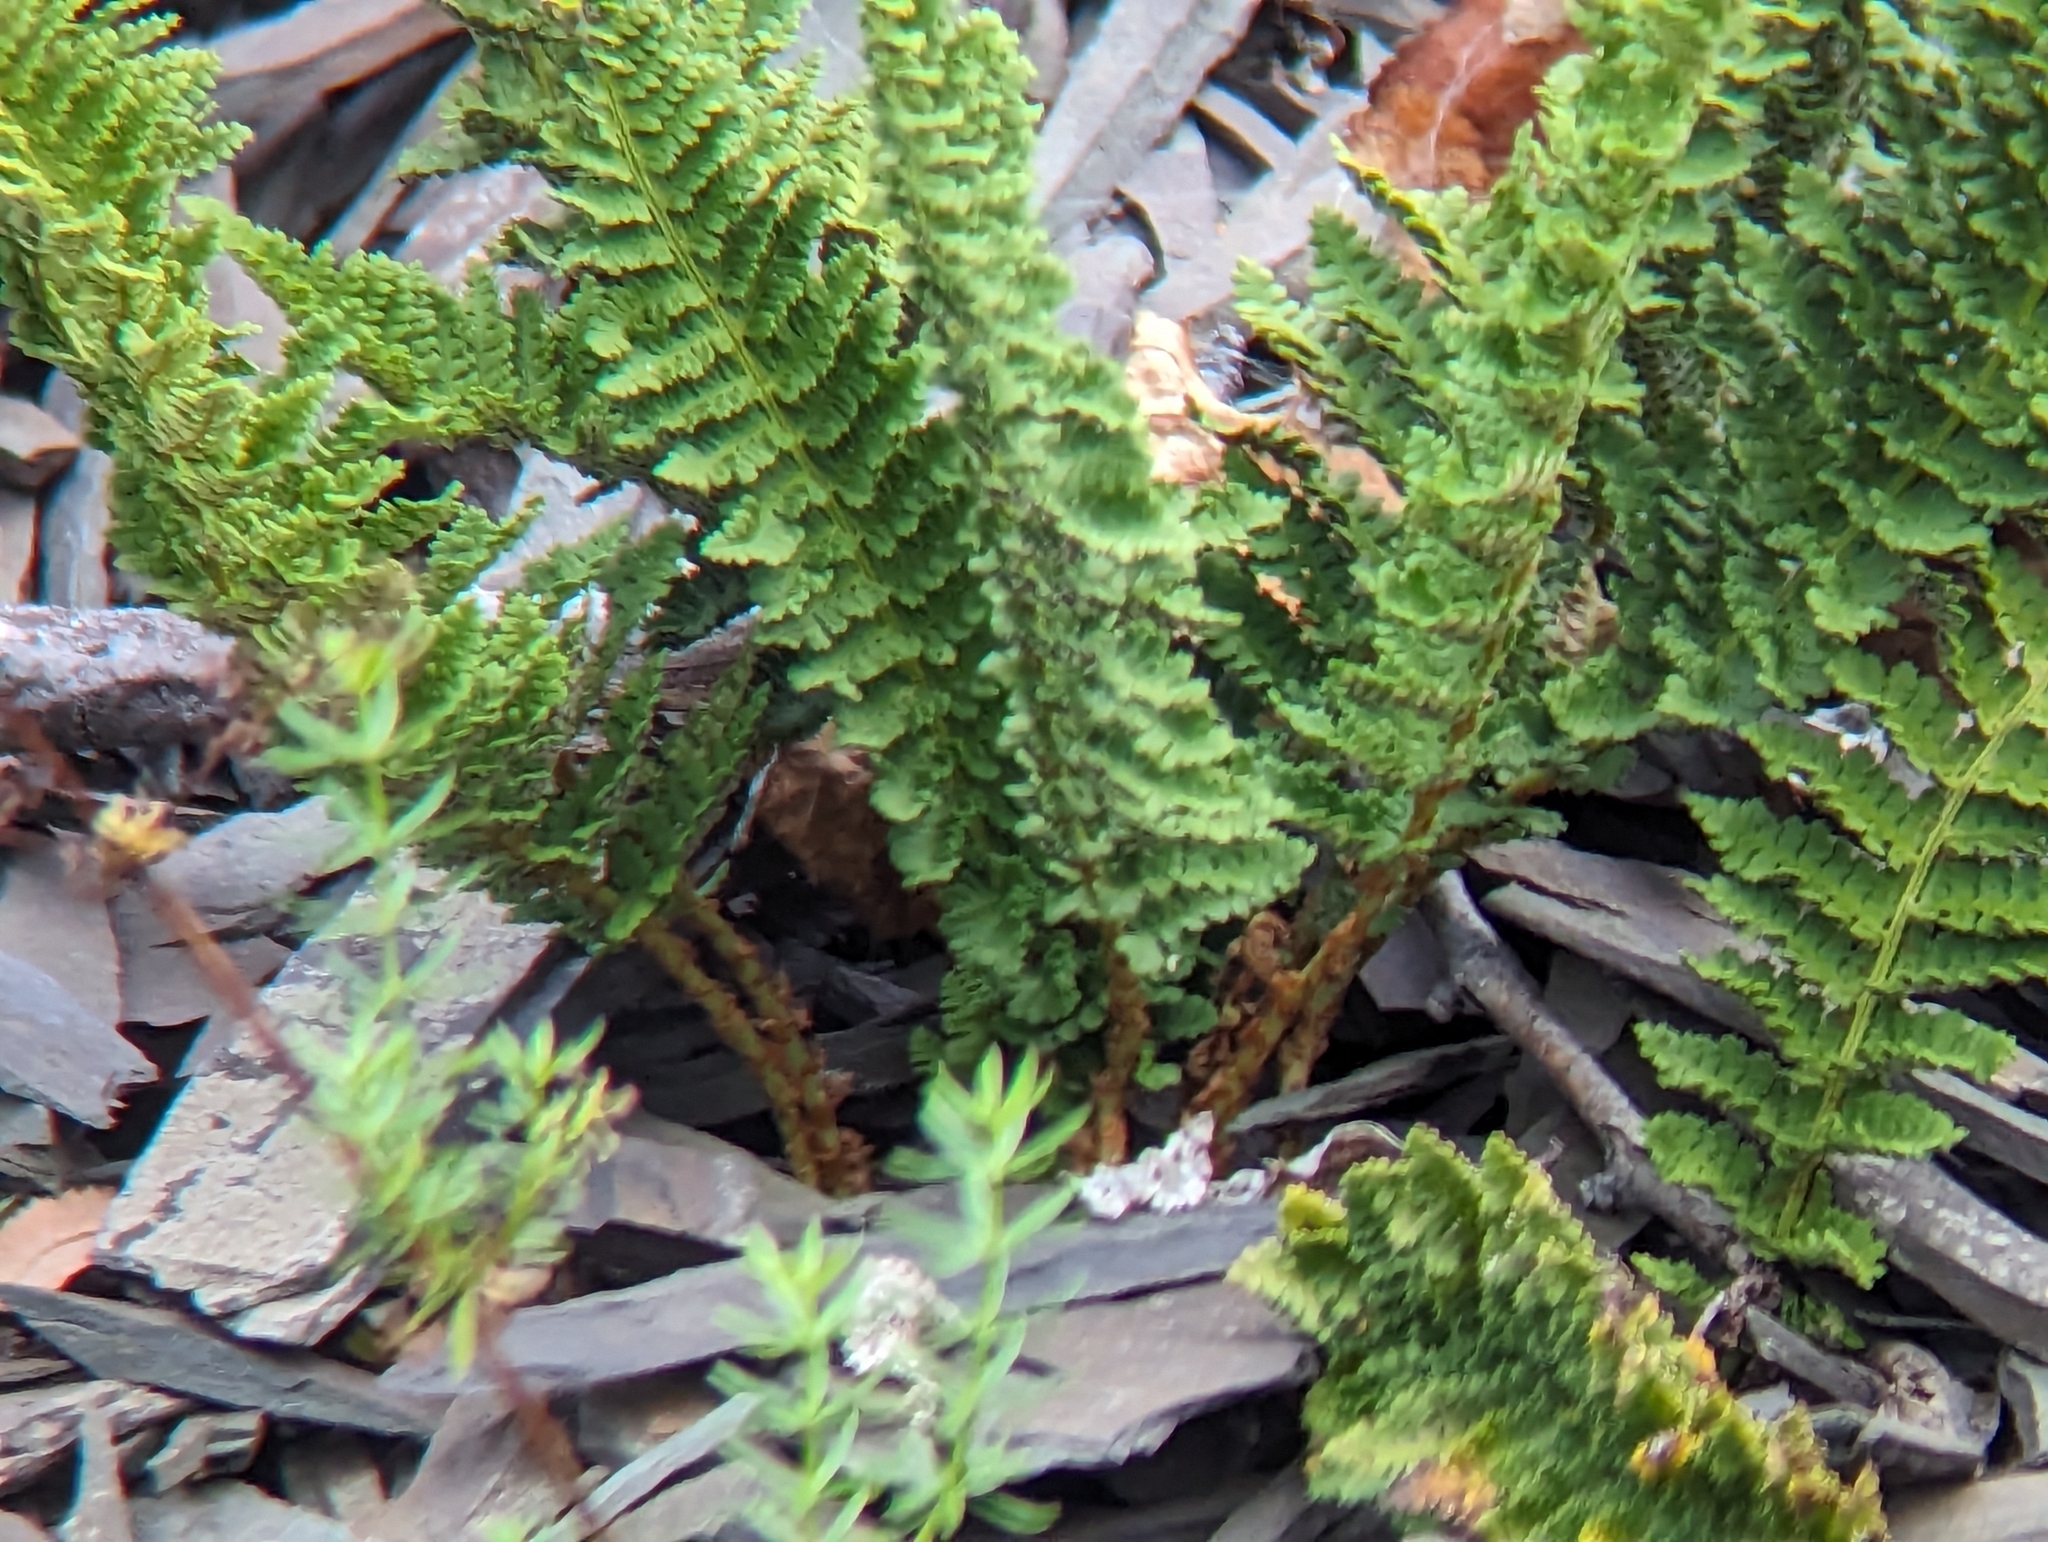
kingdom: Plantae
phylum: Tracheophyta
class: Polypodiopsida
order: Polypodiales
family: Dryopteridaceae
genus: Dryopteris
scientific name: Dryopteris fragrans
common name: Fragrant wood fern
